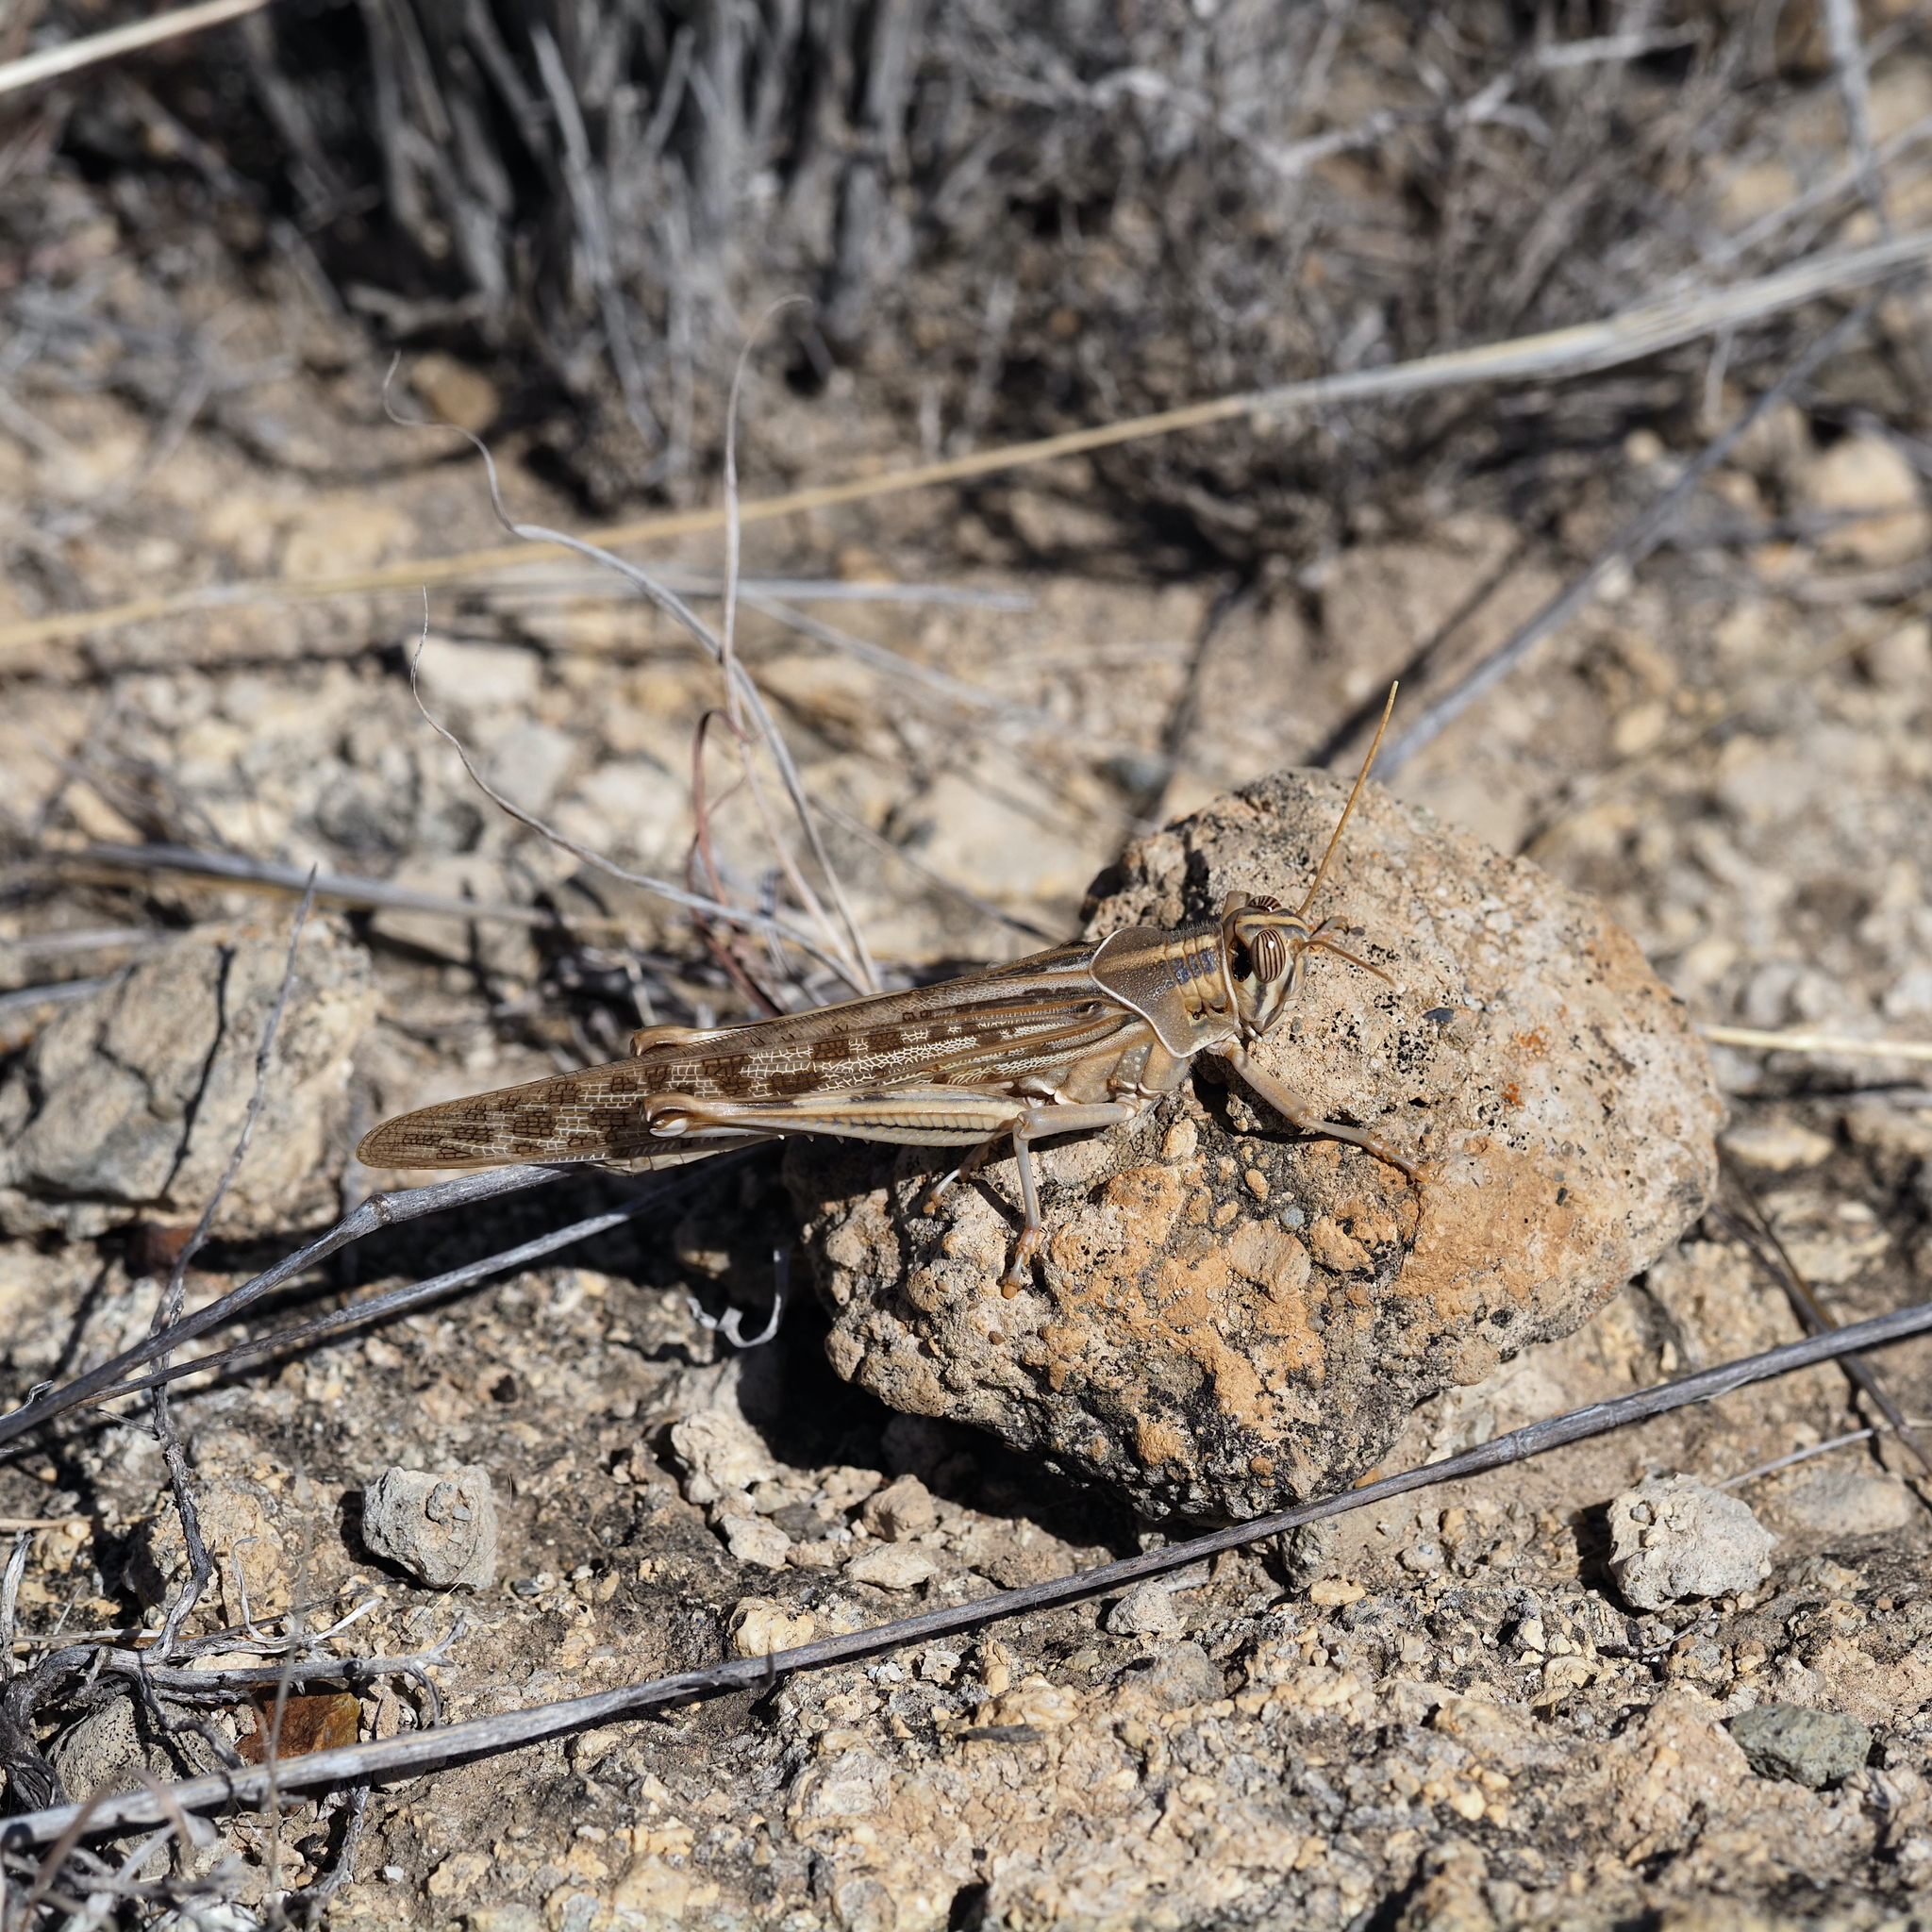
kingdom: Animalia
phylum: Arthropoda
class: Insecta
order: Orthoptera
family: Acrididae
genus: Schistocerca
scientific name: Schistocerca gregaria
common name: Desert locust
